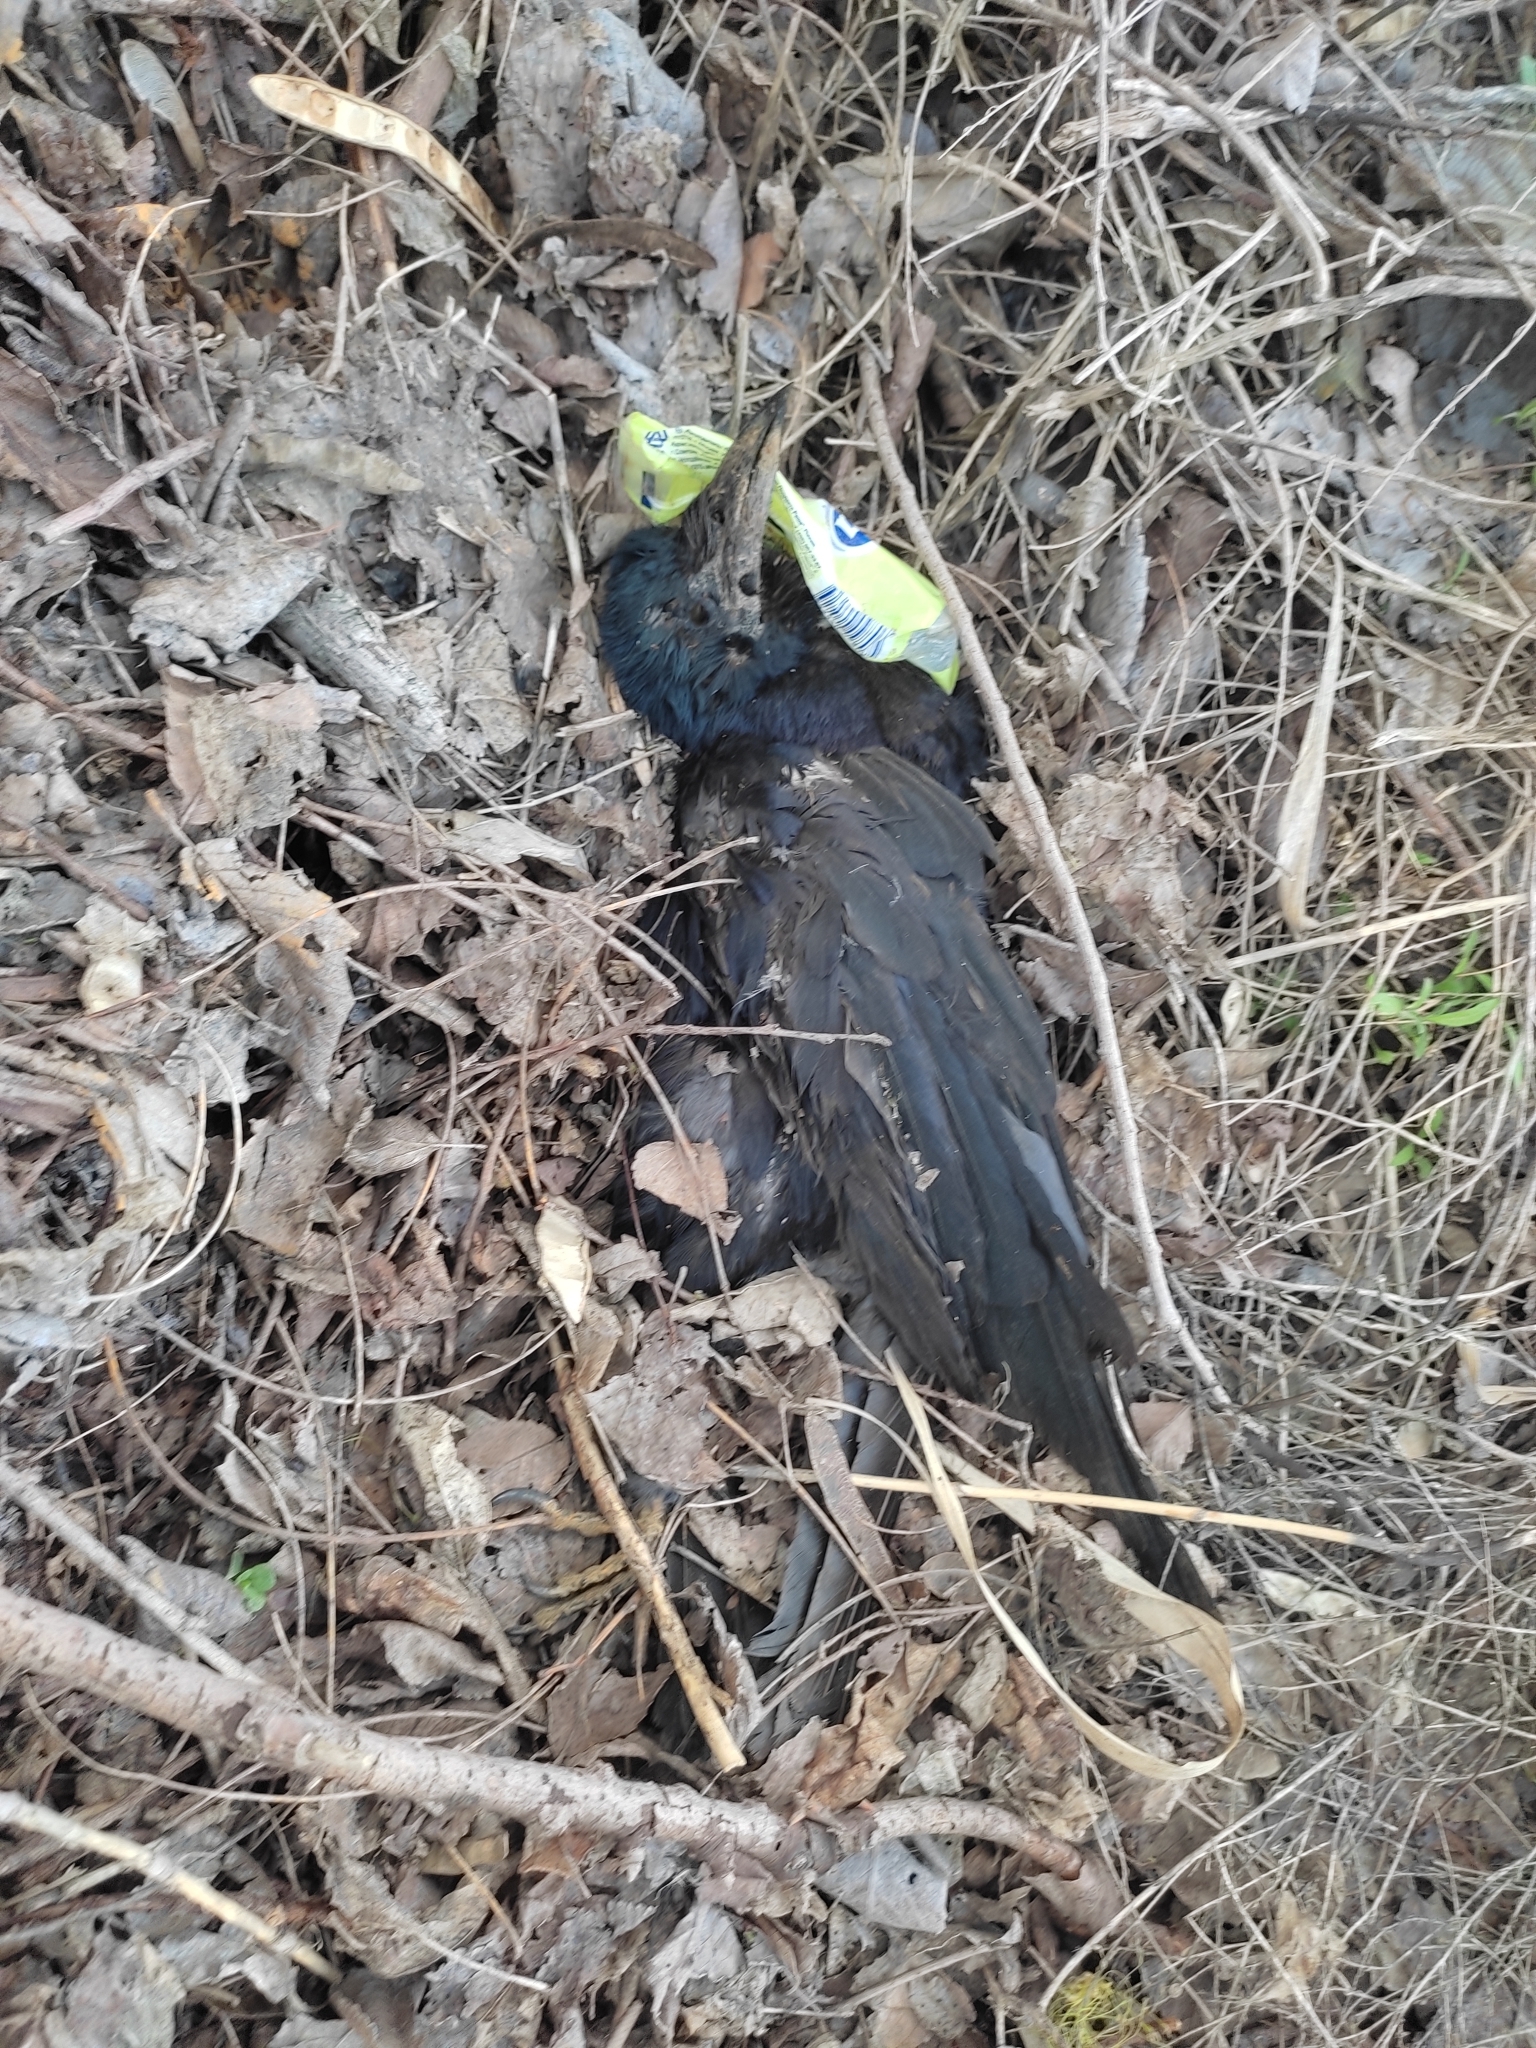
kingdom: Animalia
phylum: Chordata
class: Aves
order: Passeriformes
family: Corvidae
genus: Corvus
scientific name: Corvus frugilegus
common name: Rook
